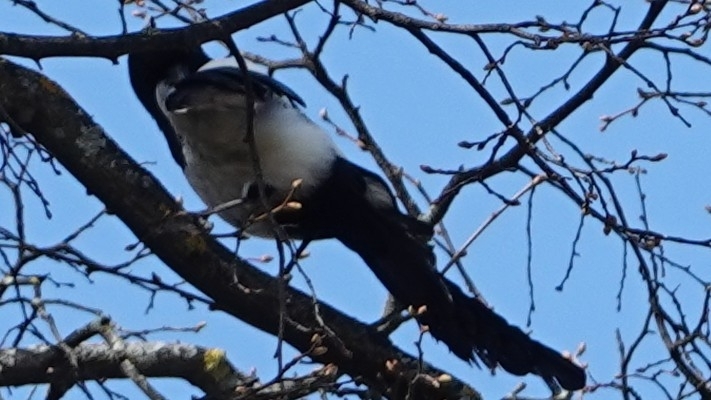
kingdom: Animalia
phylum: Chordata
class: Aves
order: Passeriformes
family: Corvidae
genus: Pica
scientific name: Pica pica
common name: Eurasian magpie
